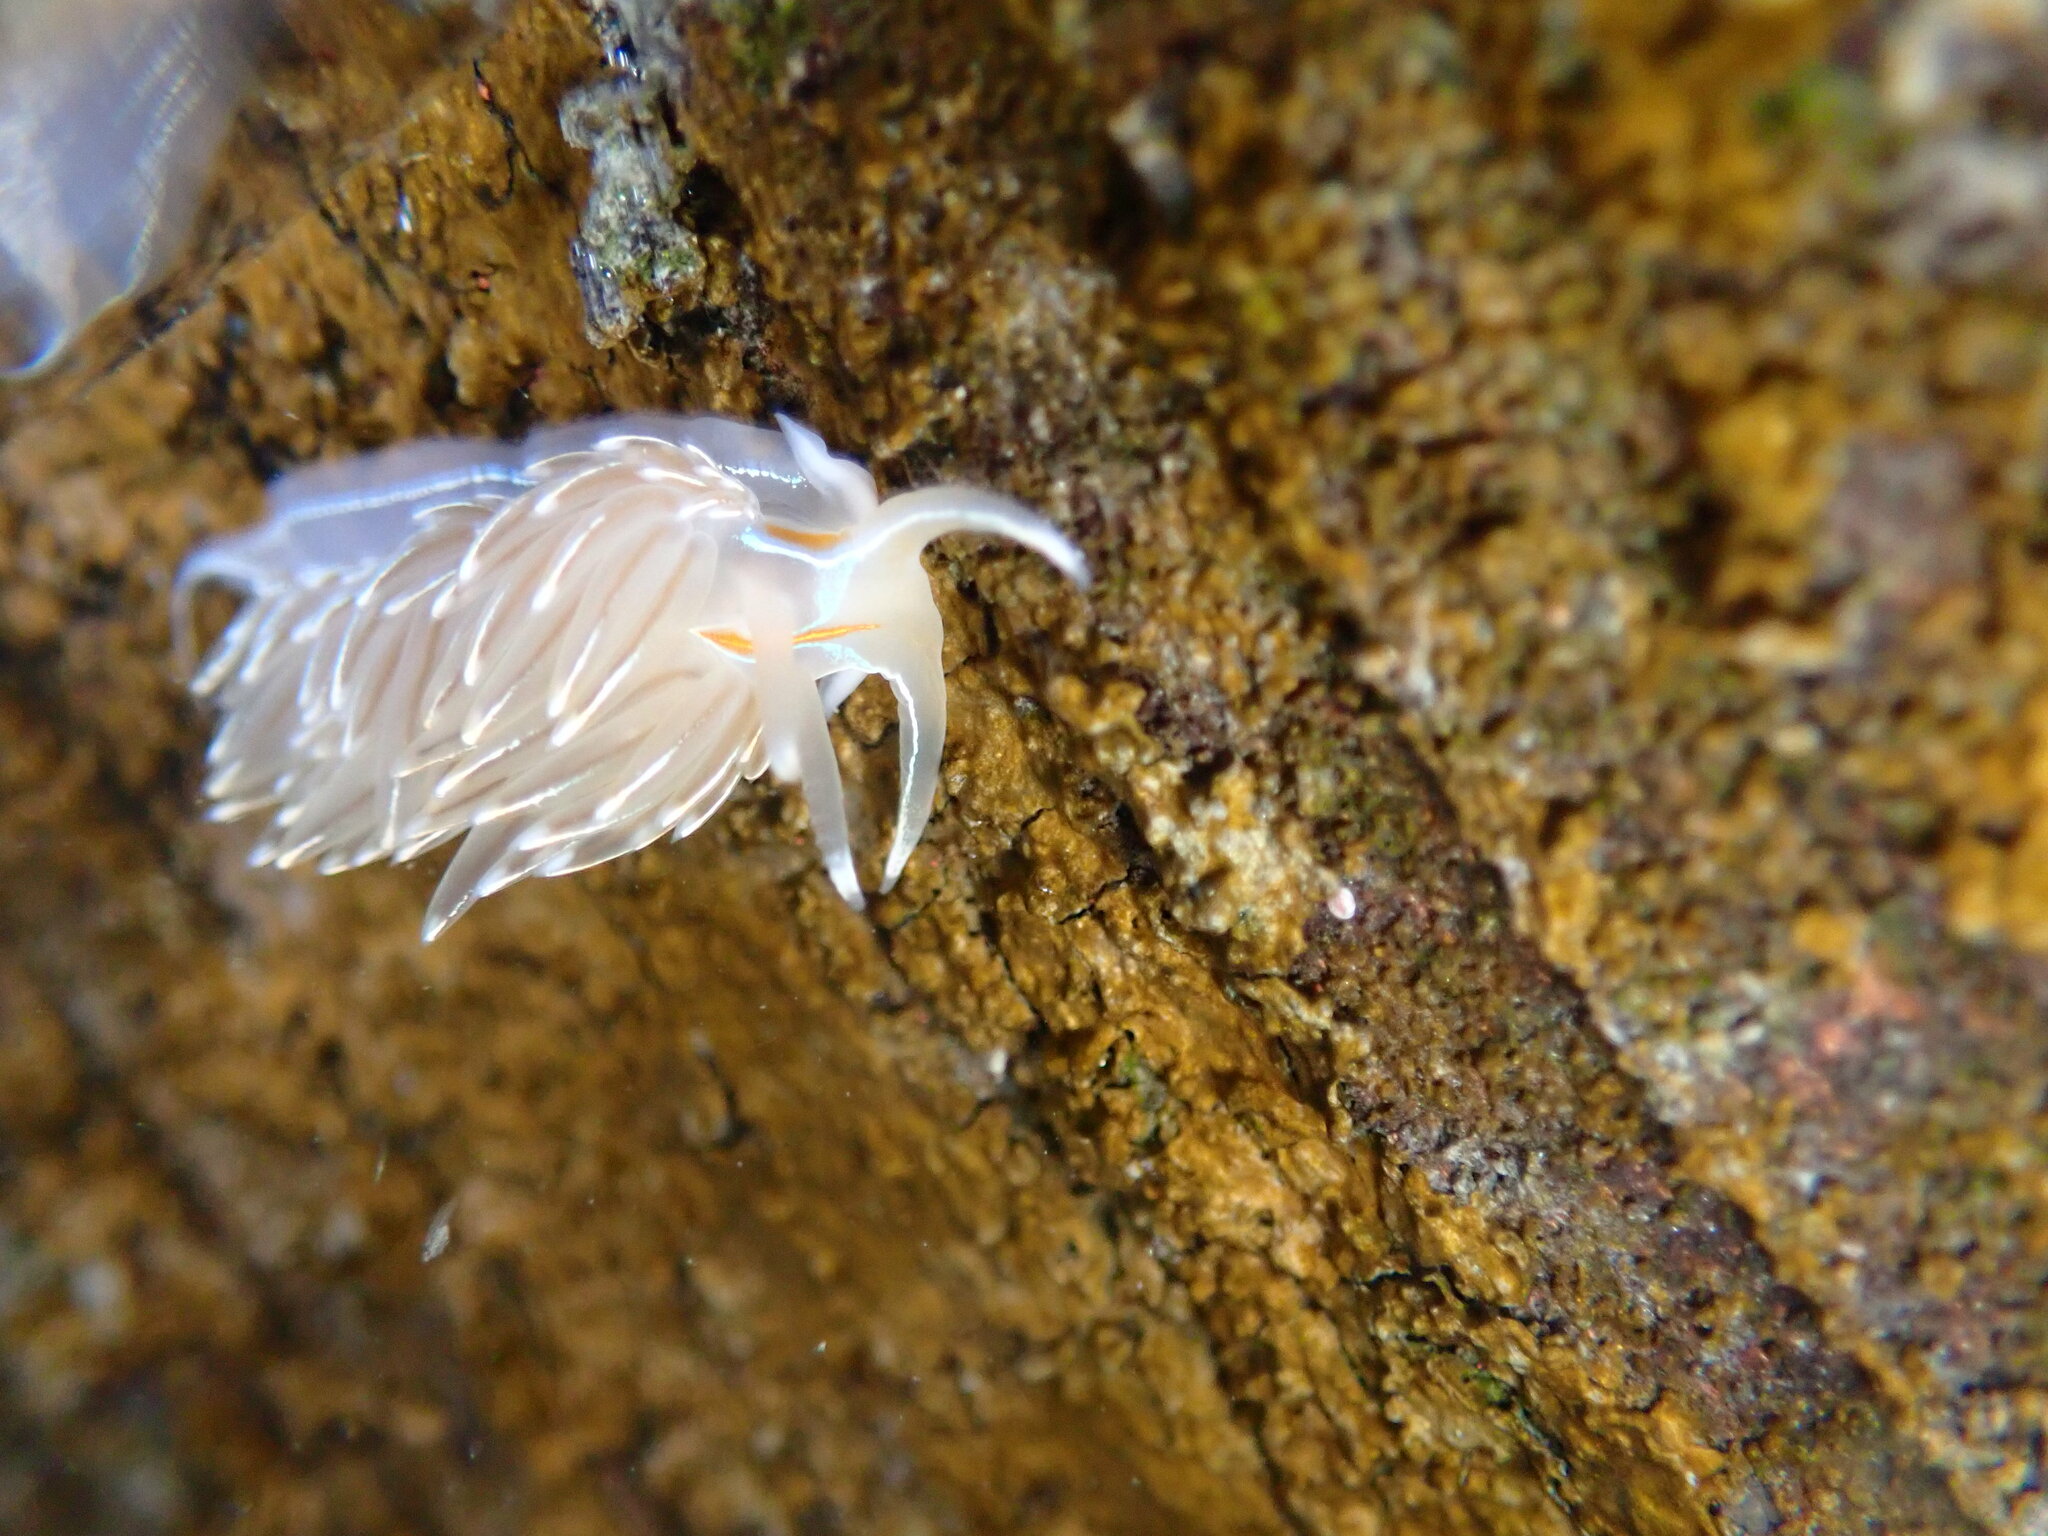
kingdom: Animalia
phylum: Mollusca
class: Gastropoda
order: Nudibranchia
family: Myrrhinidae
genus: Hermissenda
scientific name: Hermissenda crassicornis
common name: Hermissenda
